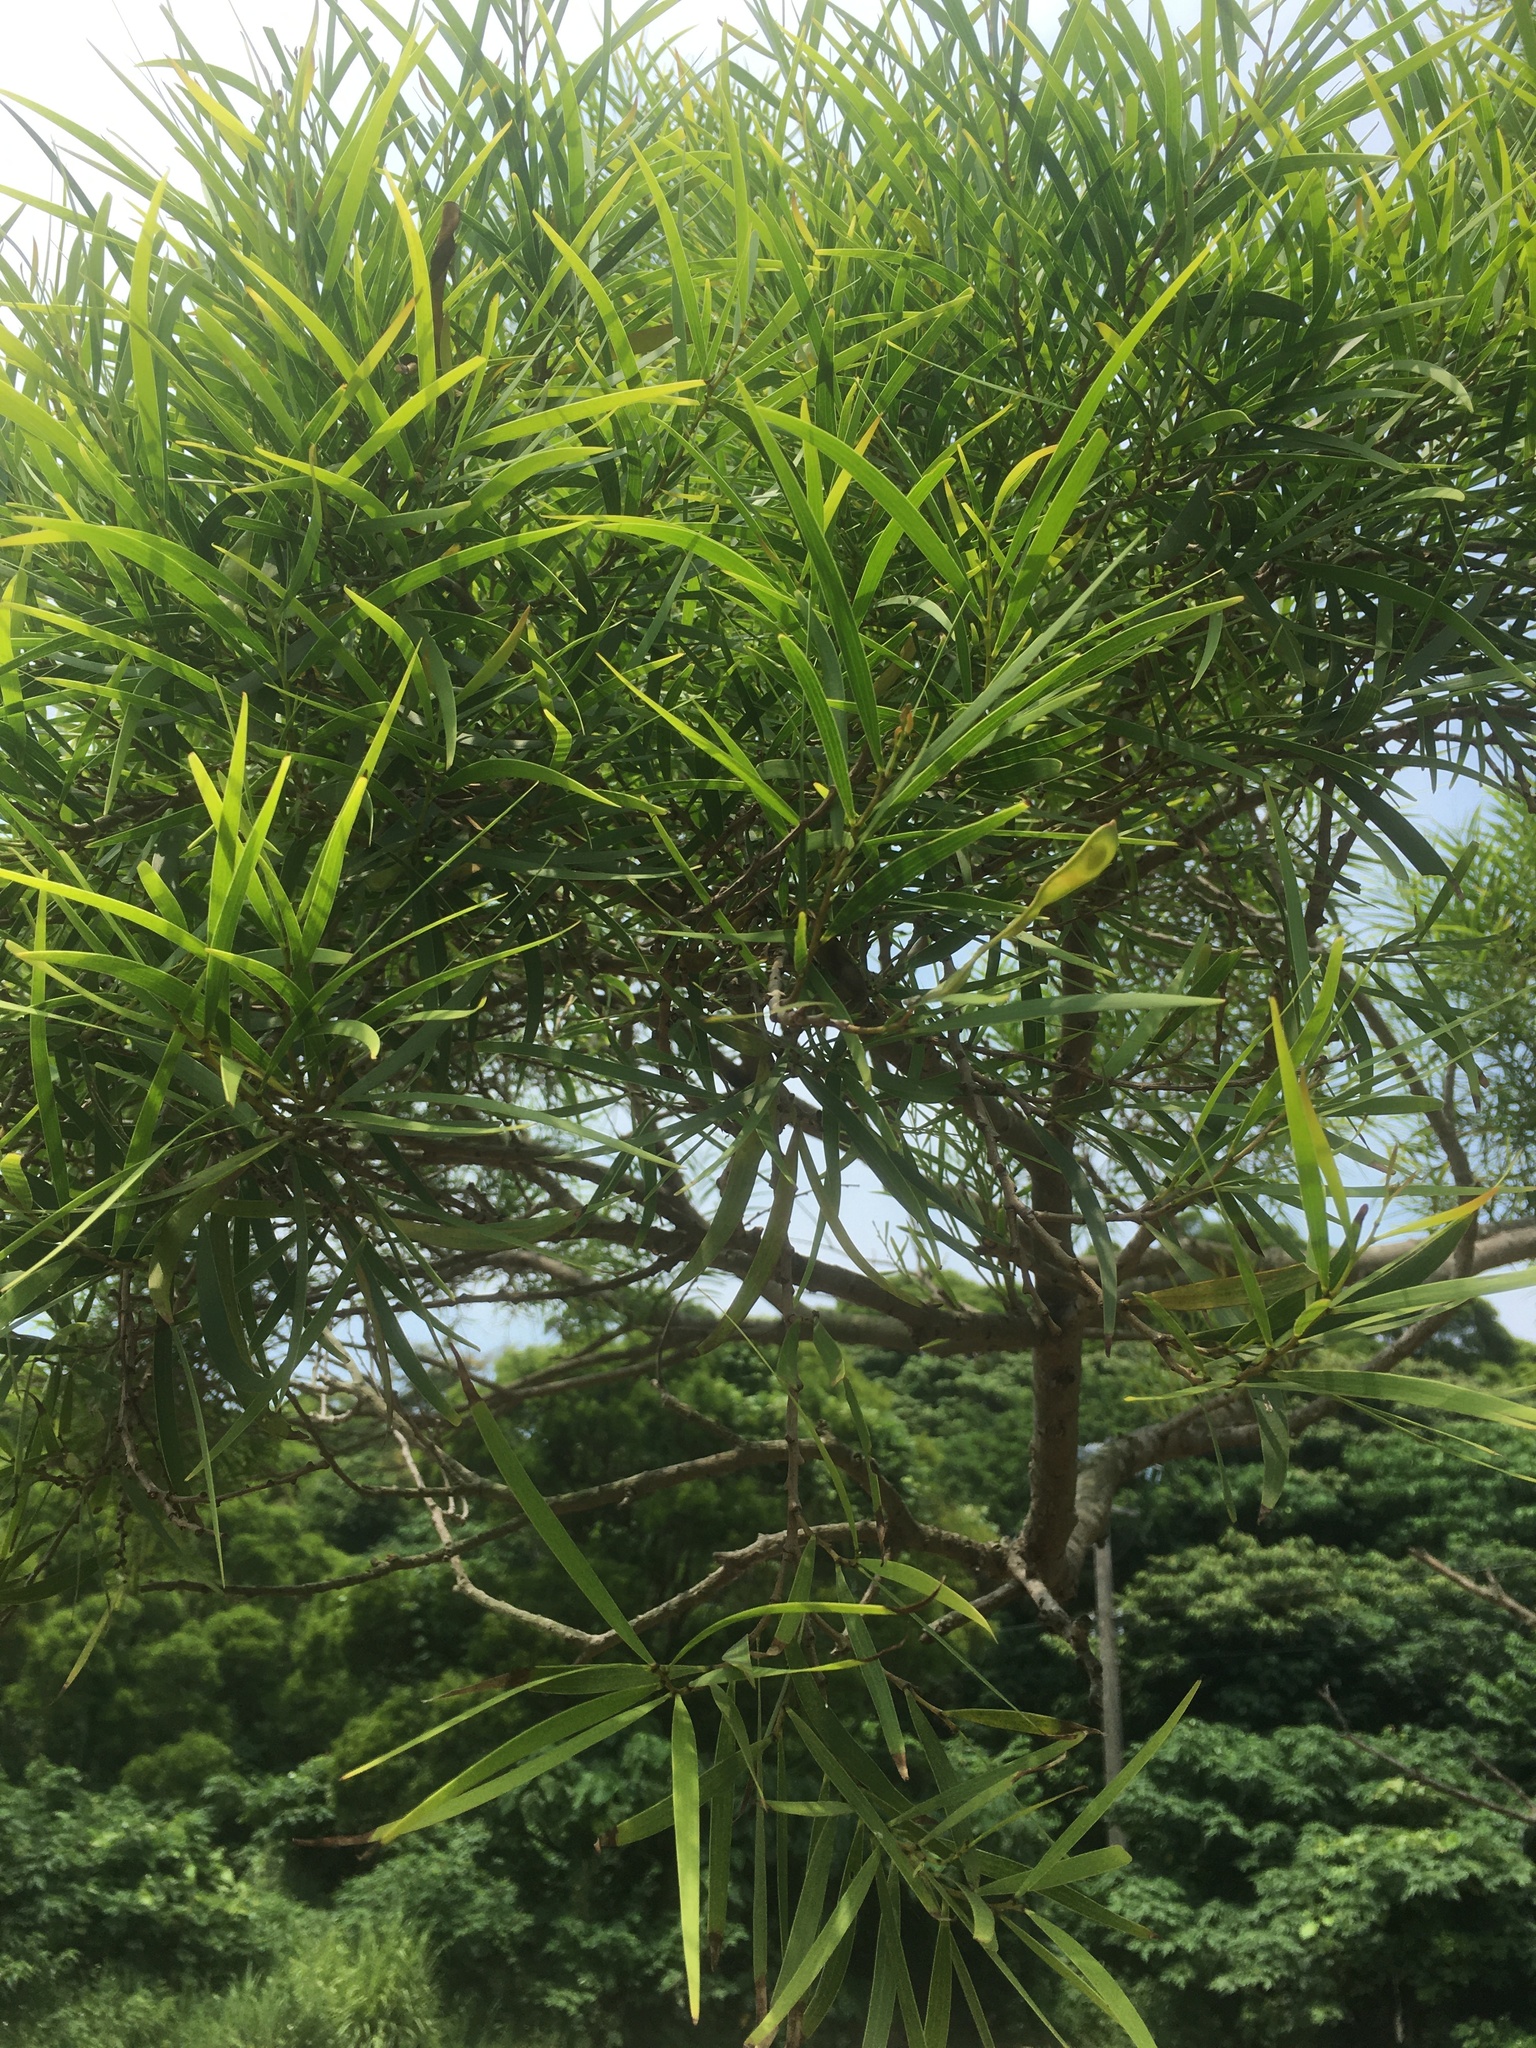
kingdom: Plantae
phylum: Tracheophyta
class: Magnoliopsida
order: Fabales
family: Fabaceae
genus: Acacia
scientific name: Acacia confusa
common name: Formosan koa
